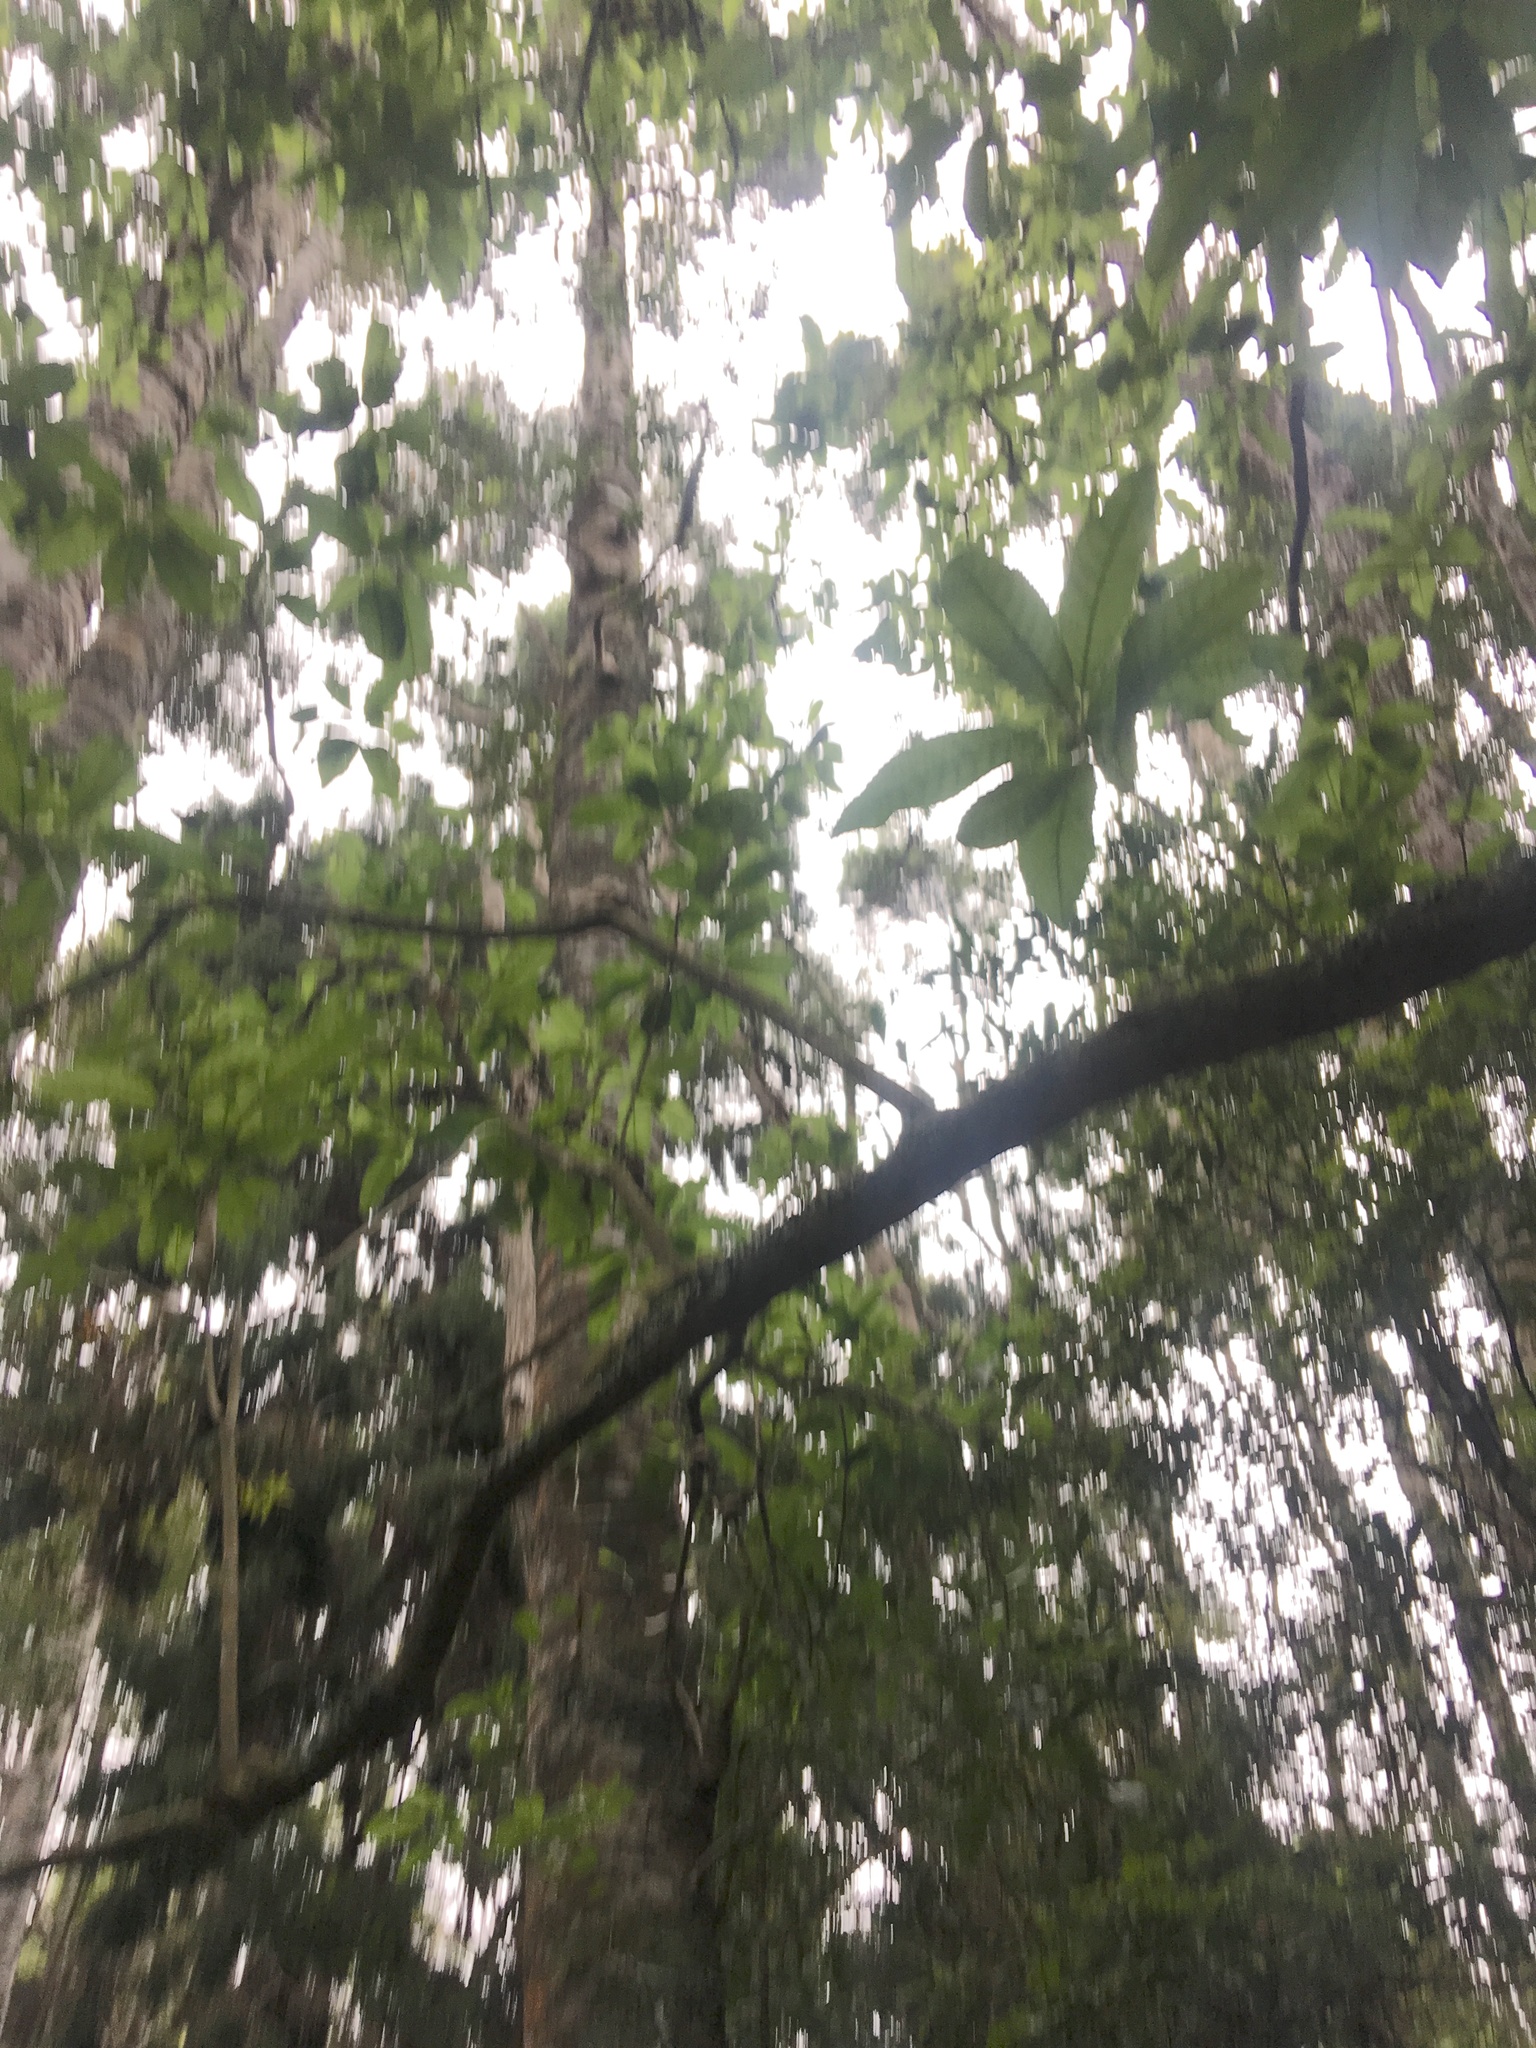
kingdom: Plantae
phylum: Tracheophyta
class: Pinopsida
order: Pinales
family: Araucariaceae
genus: Agathis
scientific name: Agathis australis
